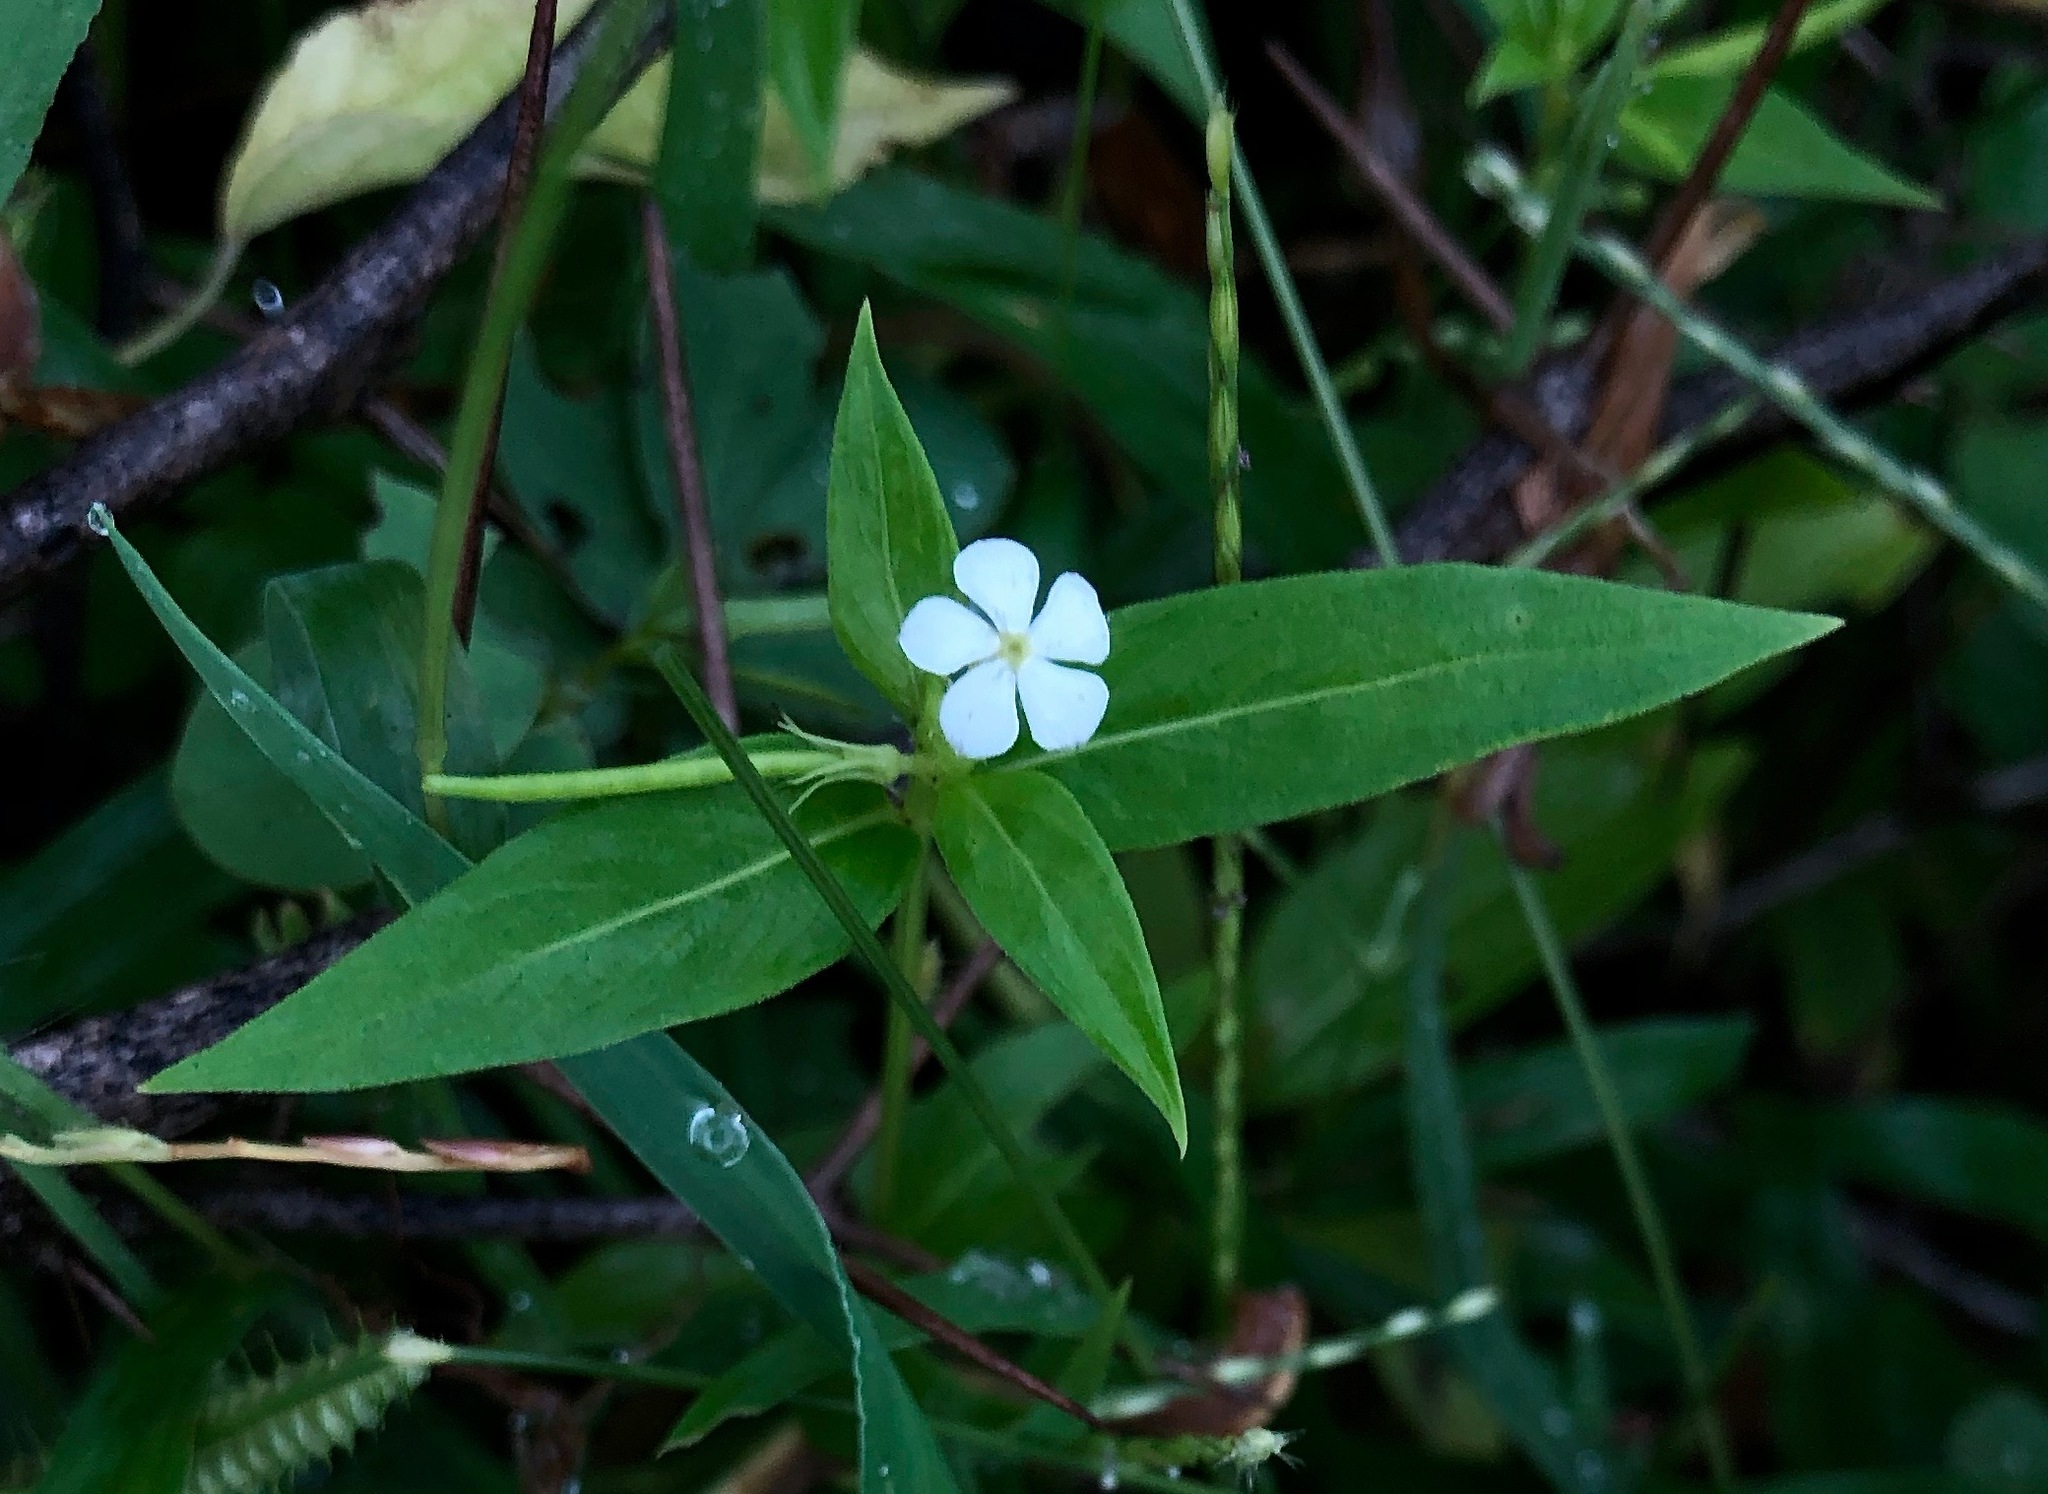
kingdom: Plantae
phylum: Tracheophyta
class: Magnoliopsida
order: Gentianales
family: Apocynaceae
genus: Catharanthus
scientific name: Catharanthus pusillus
